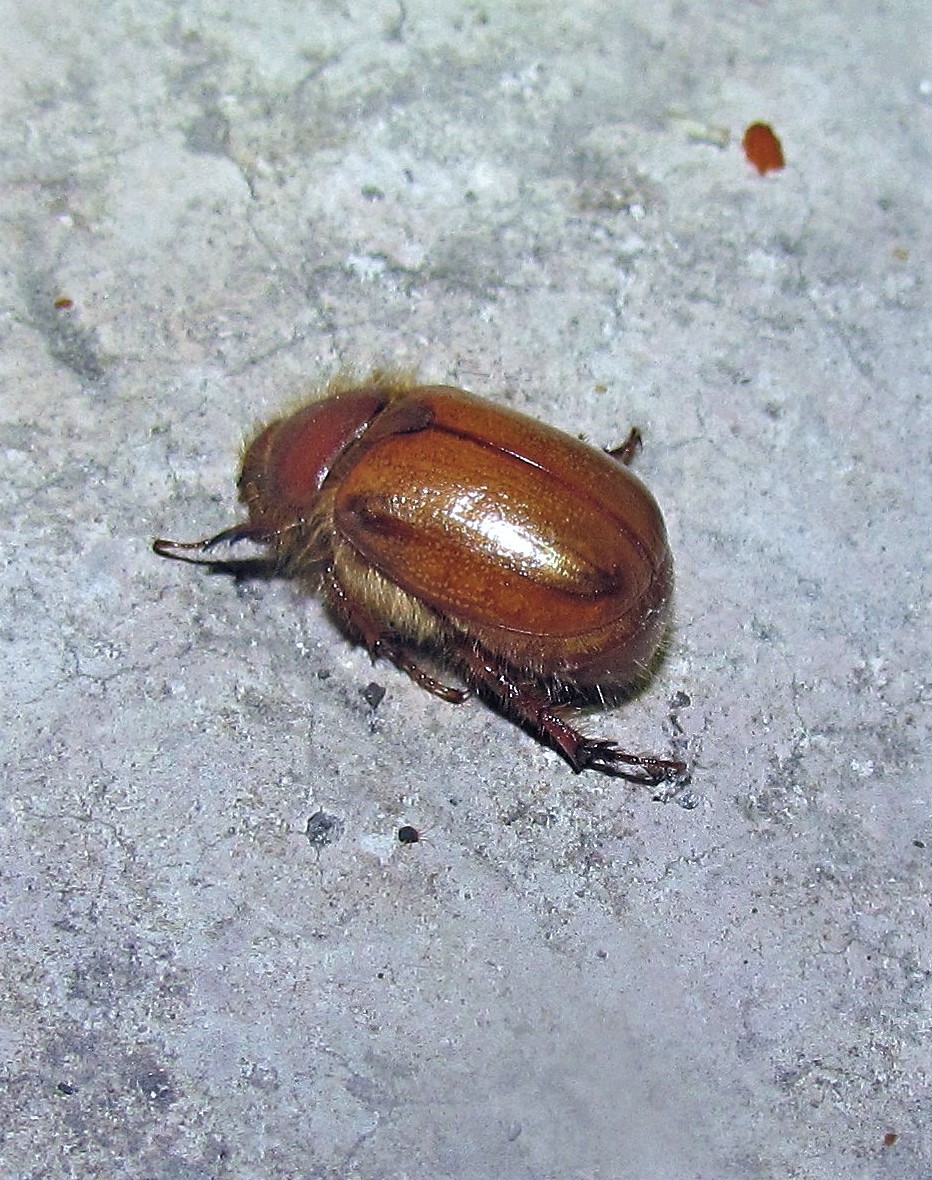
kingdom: Animalia
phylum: Arthropoda
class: Insecta
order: Coleoptera
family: Scarabaeidae
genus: Aulacopalpus
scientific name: Aulacopalpus pilicollis
